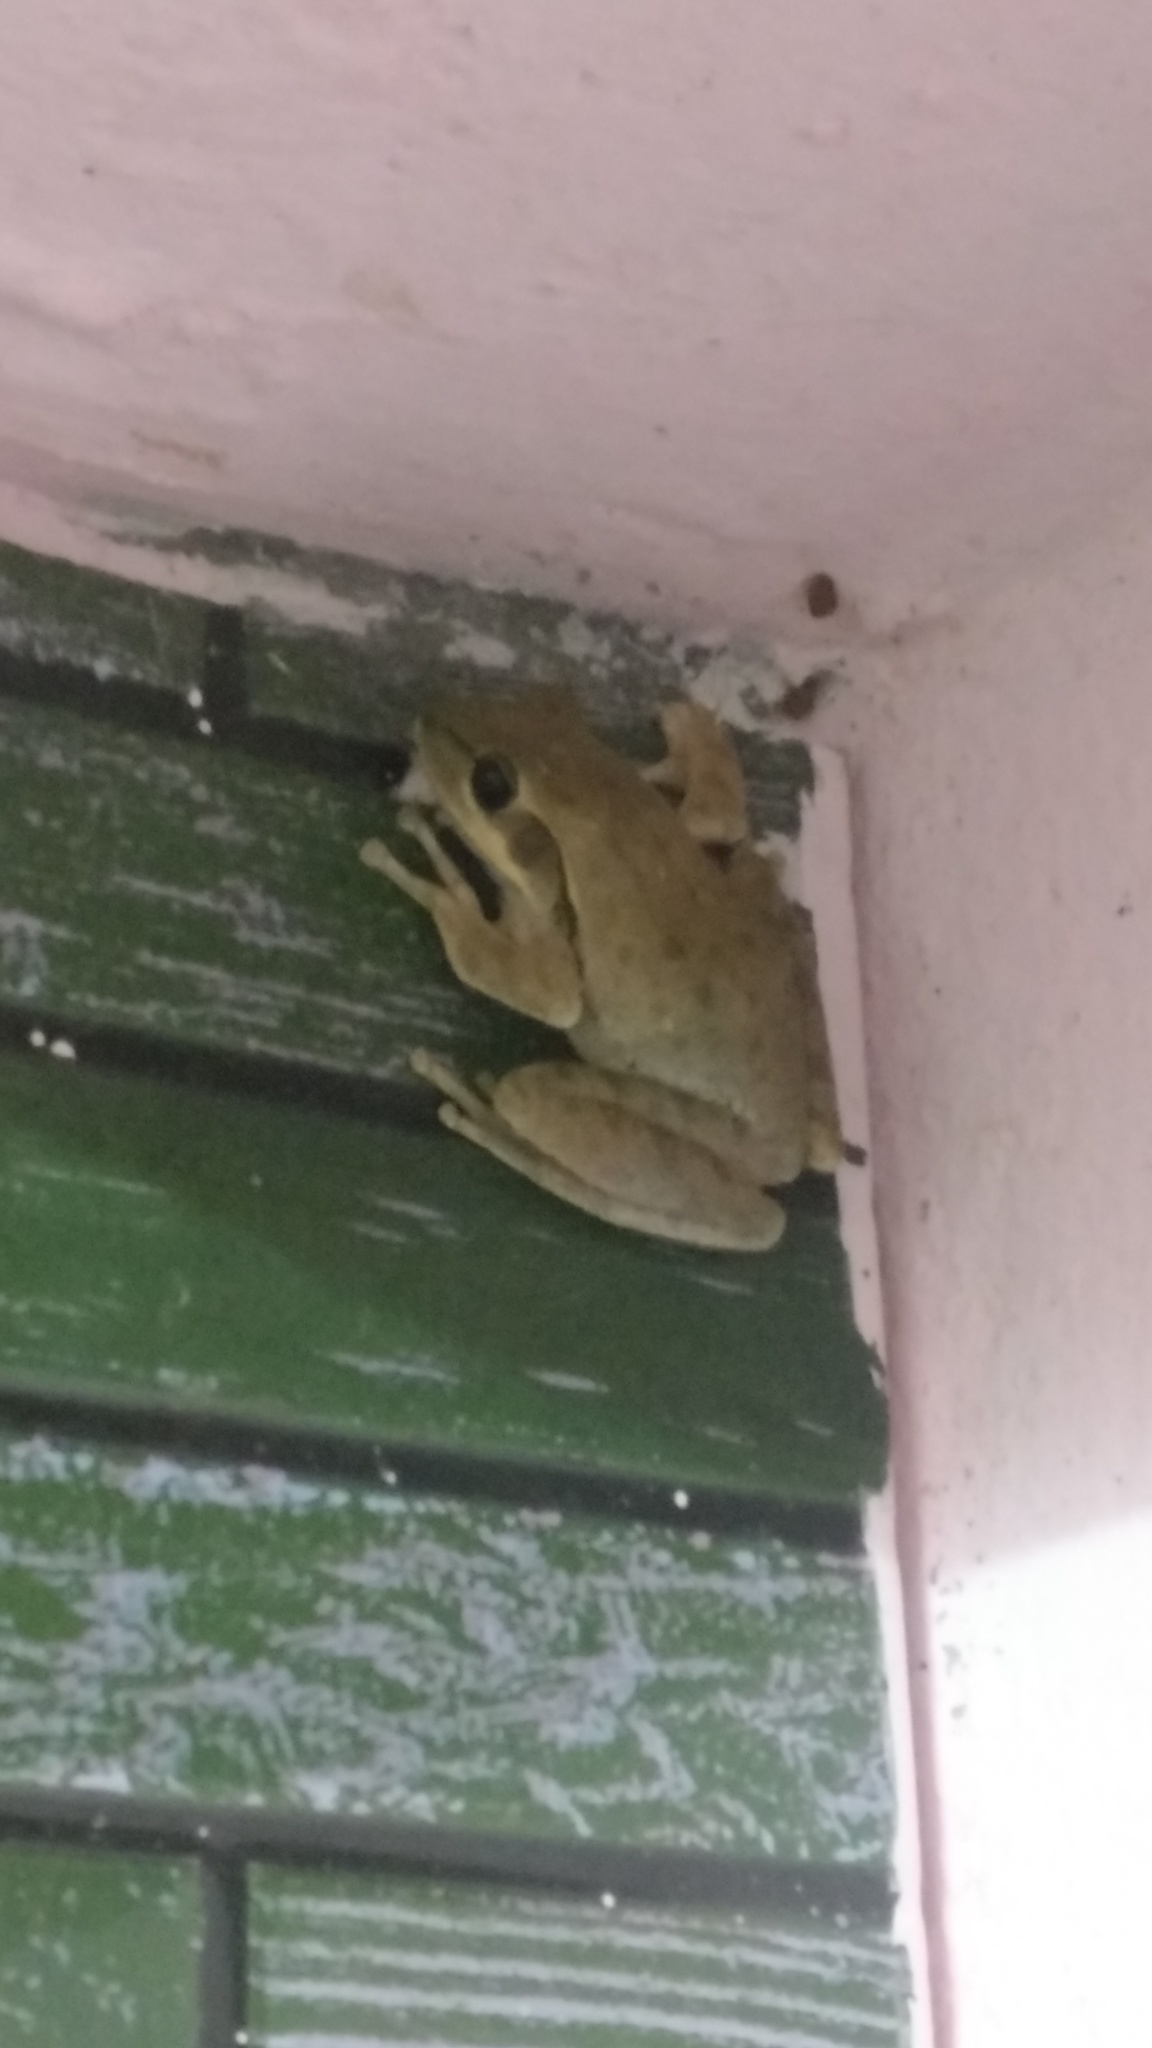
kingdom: Animalia
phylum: Chordata
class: Amphibia
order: Anura
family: Rhacophoridae
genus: Polypedates
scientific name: Polypedates maculatus
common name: Himalayan tree frog
